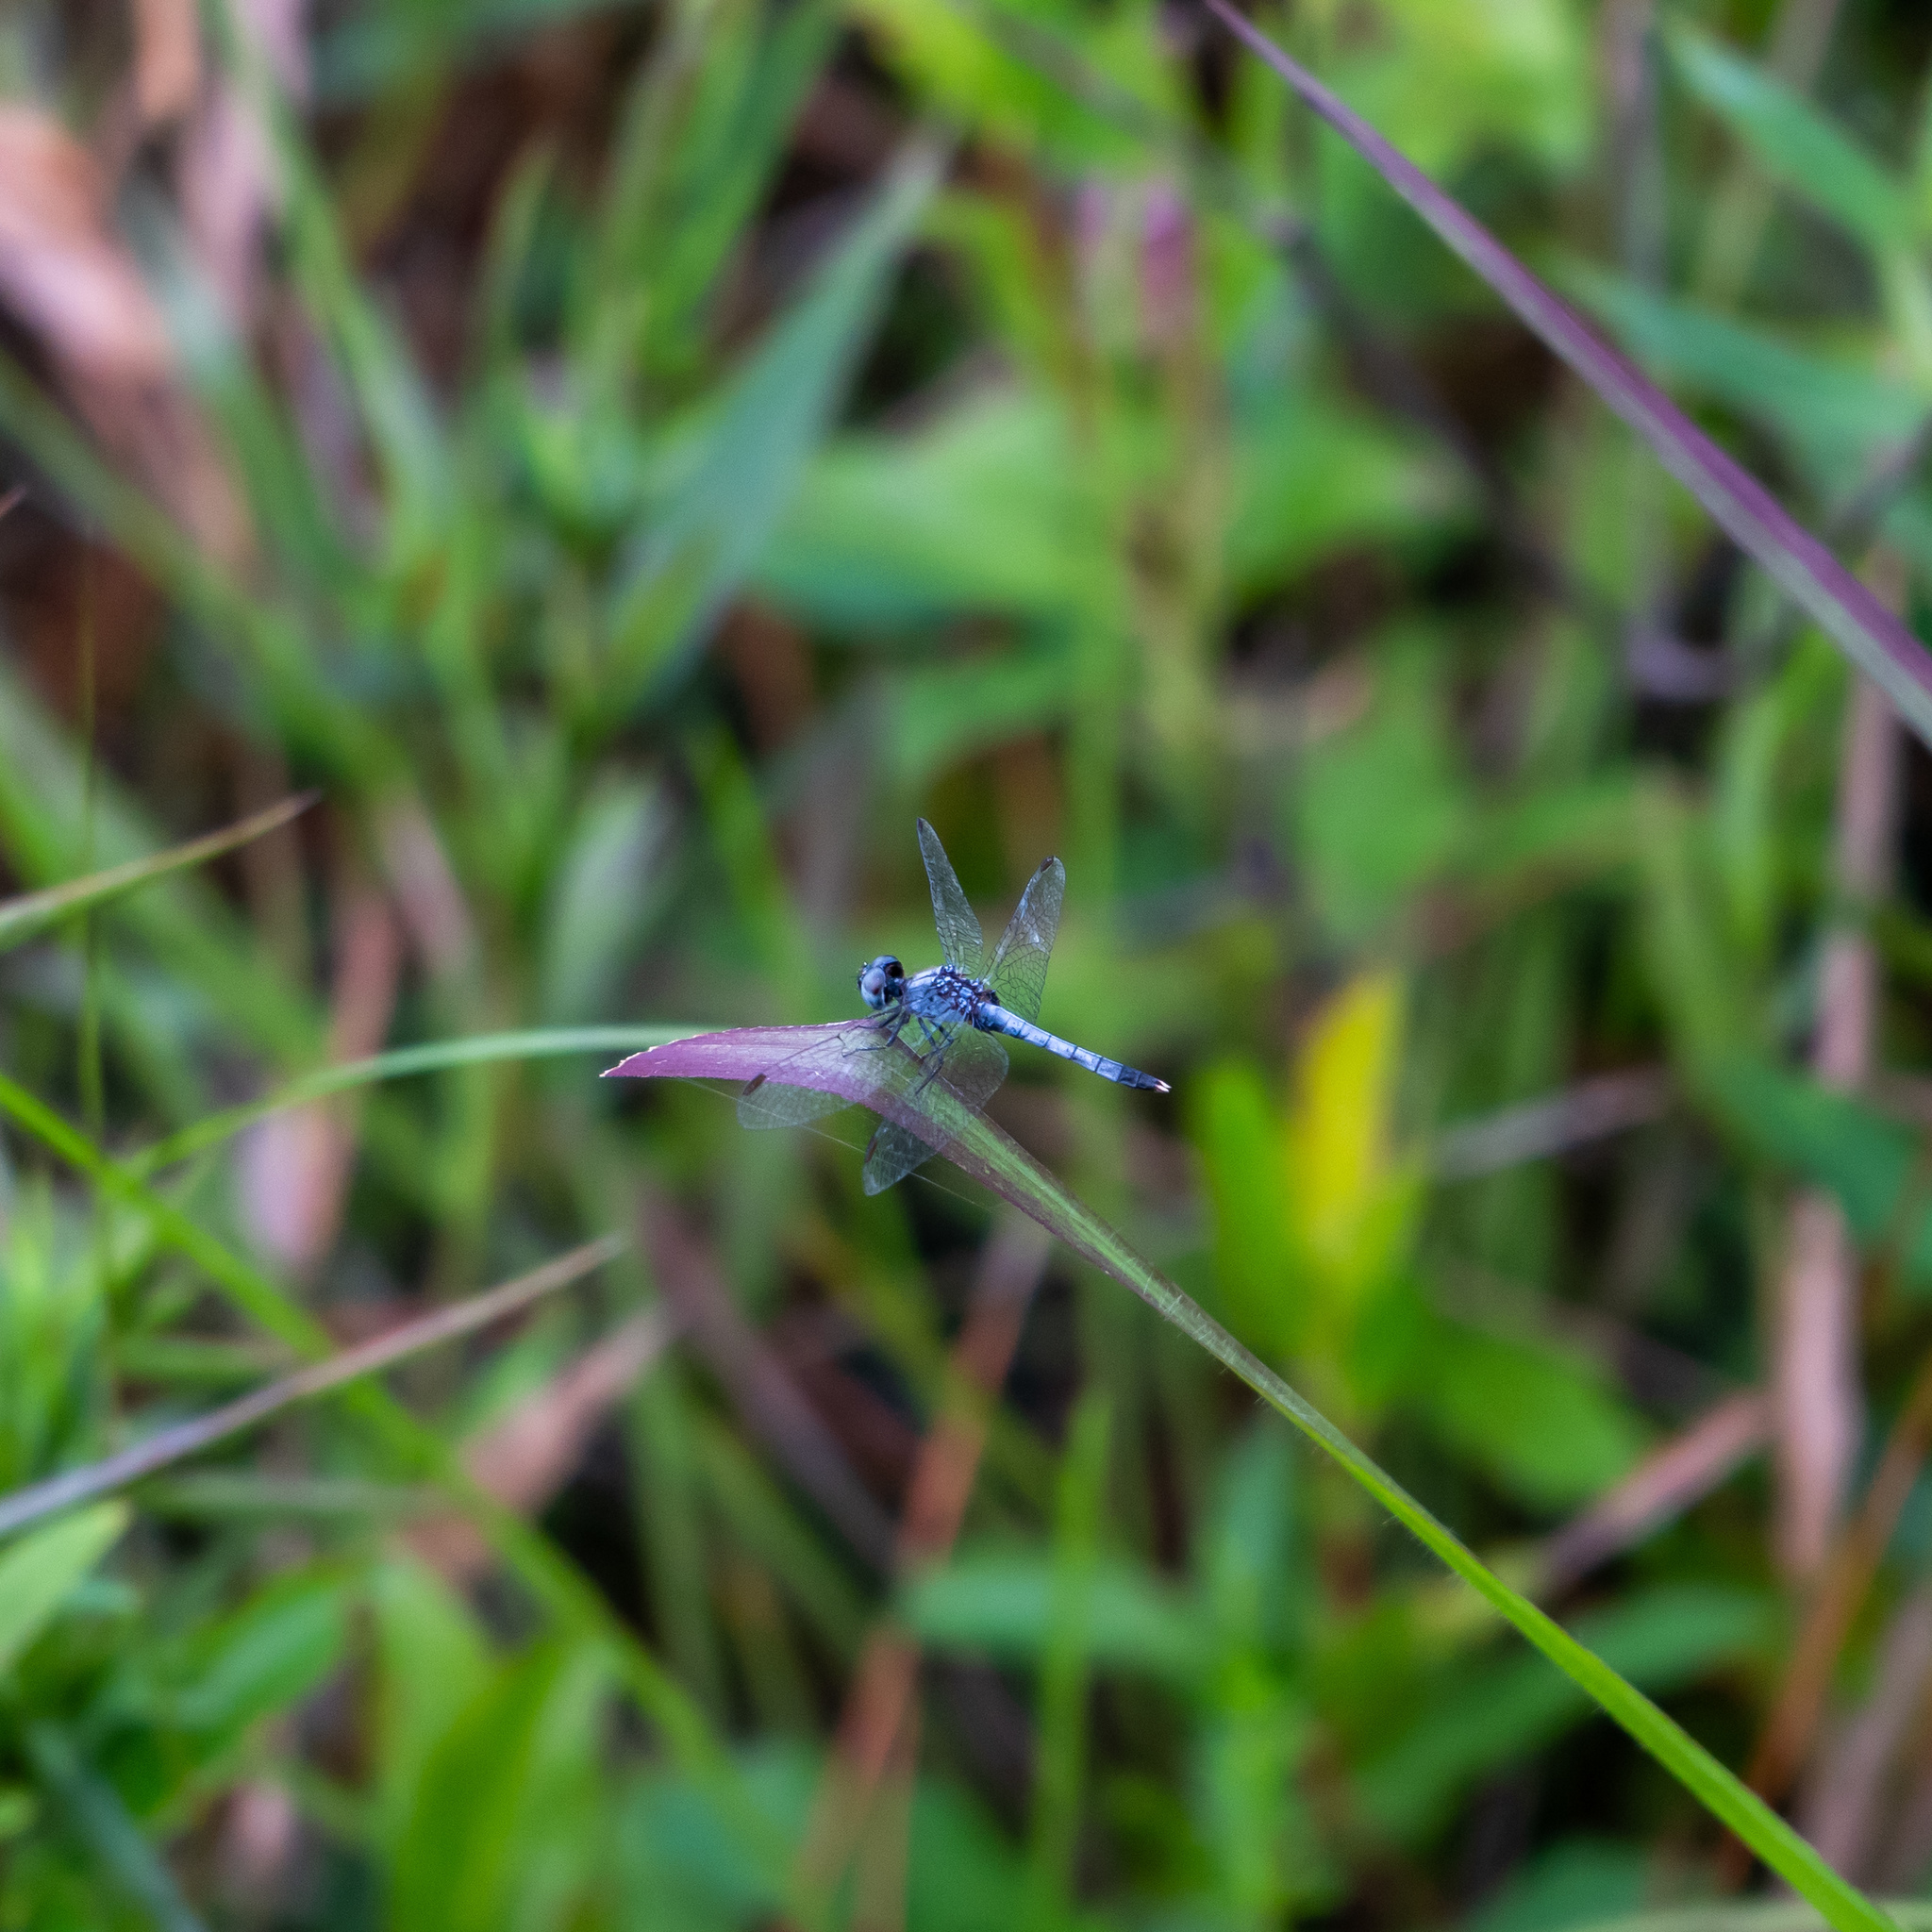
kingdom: Animalia
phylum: Arthropoda
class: Insecta
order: Odonata
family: Libellulidae
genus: Erythrodiplax
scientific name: Erythrodiplax minuscula
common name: Little blue dragonlet
